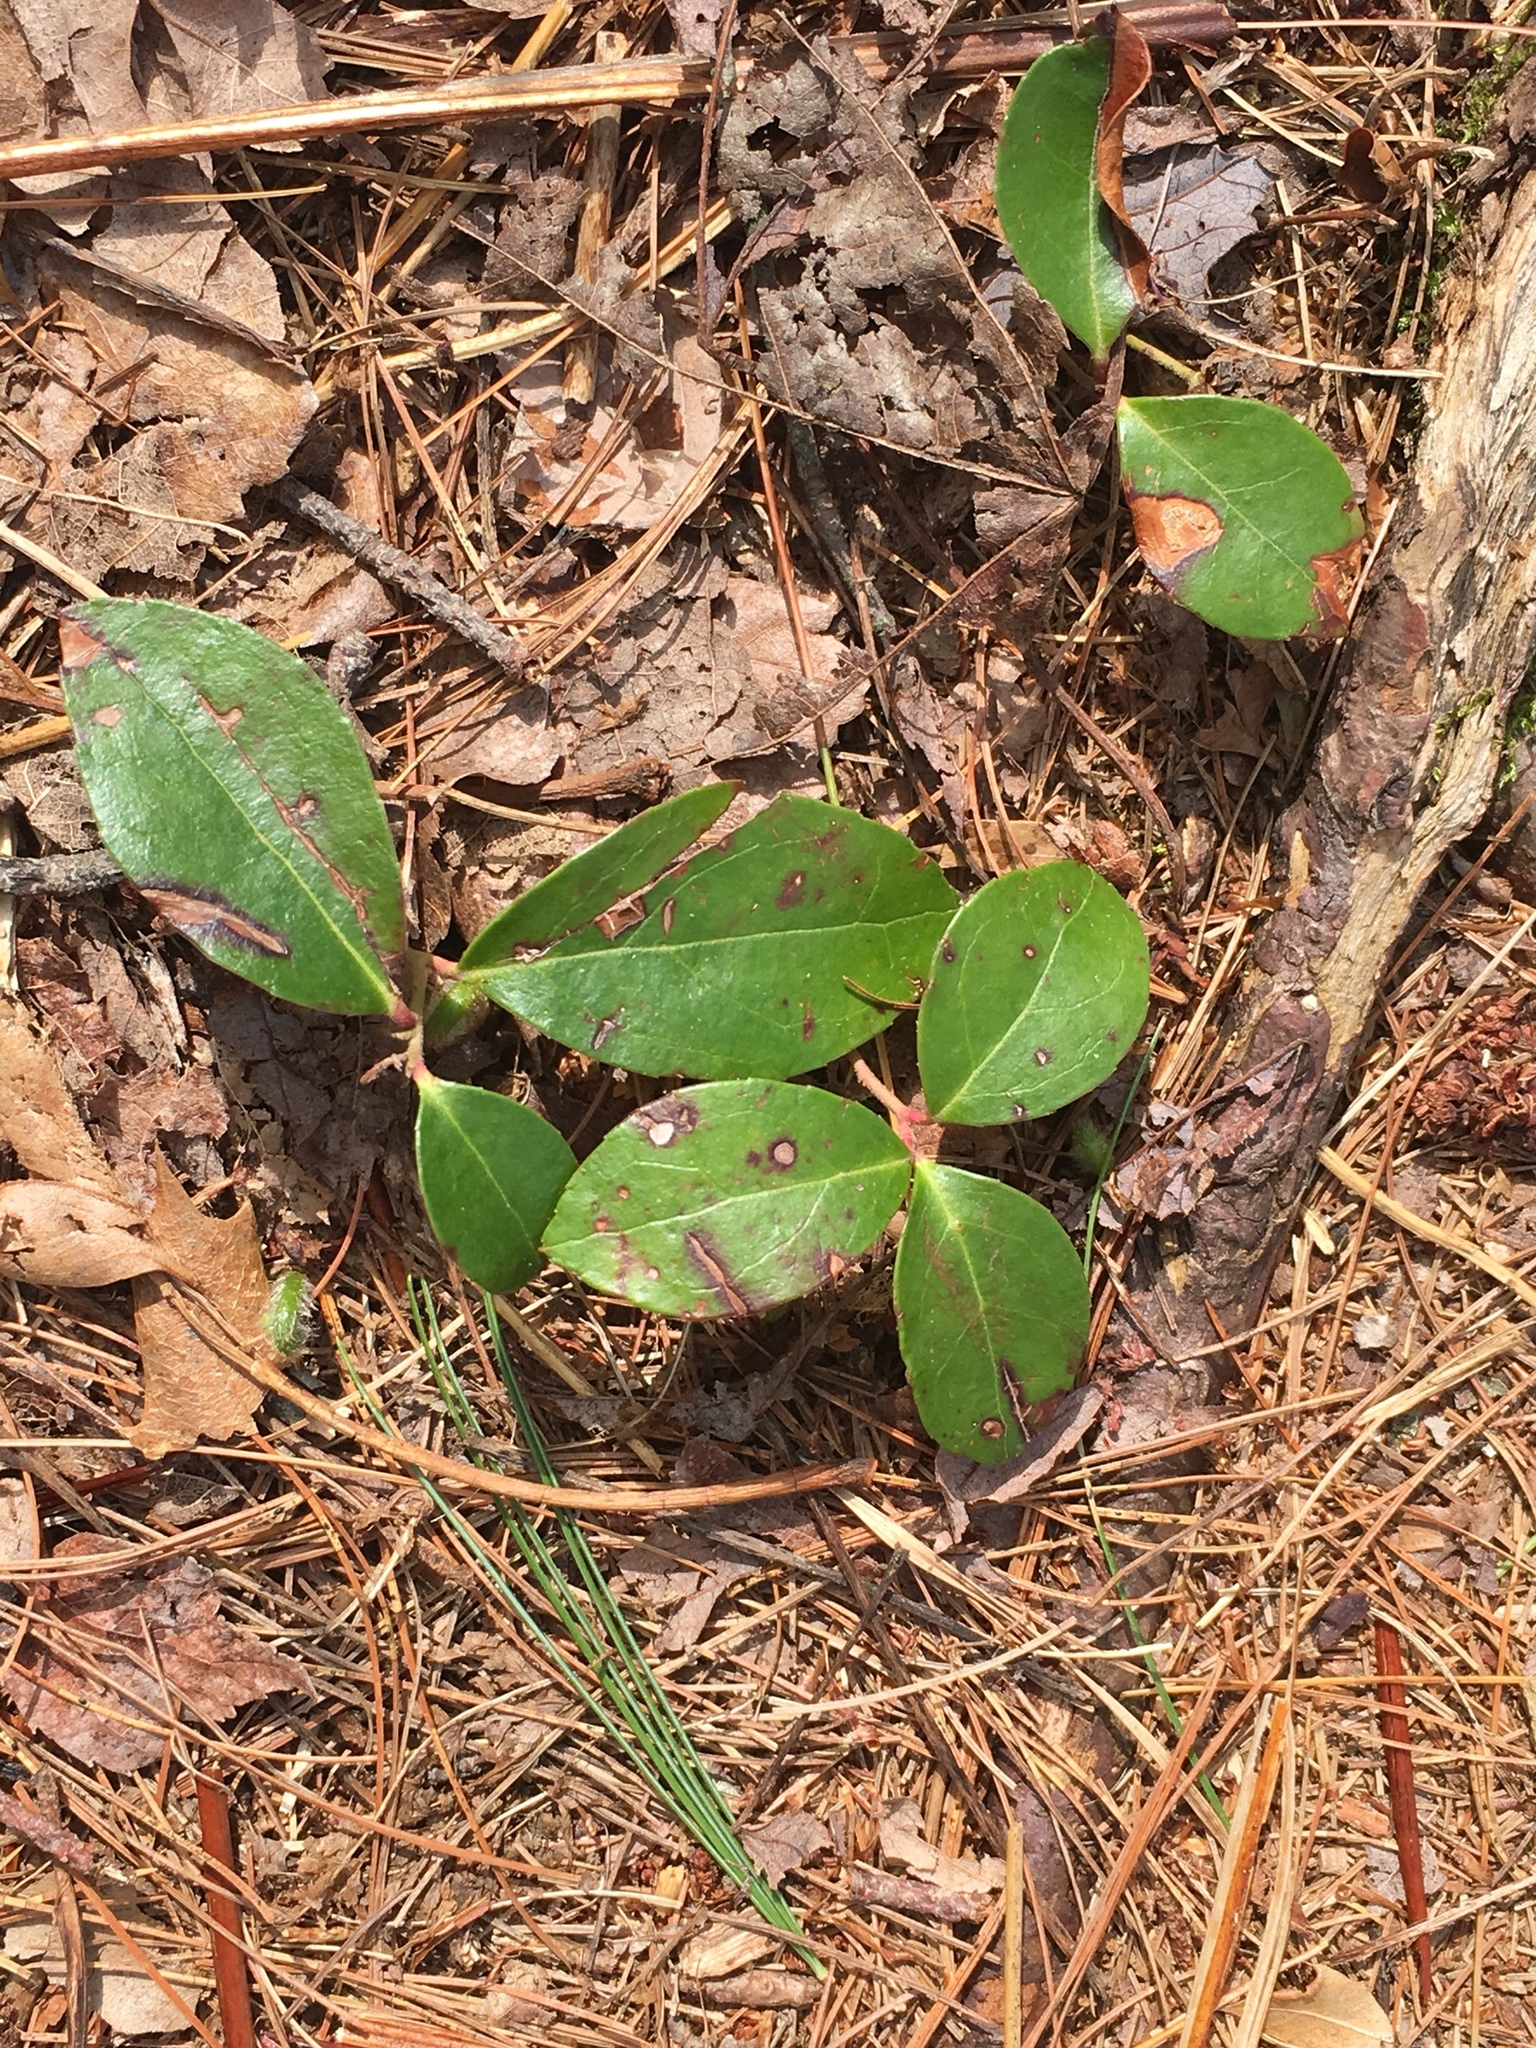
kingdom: Plantae
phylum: Tracheophyta
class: Magnoliopsida
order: Ericales
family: Ericaceae
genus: Gaultheria
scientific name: Gaultheria procumbens
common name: Checkerberry
